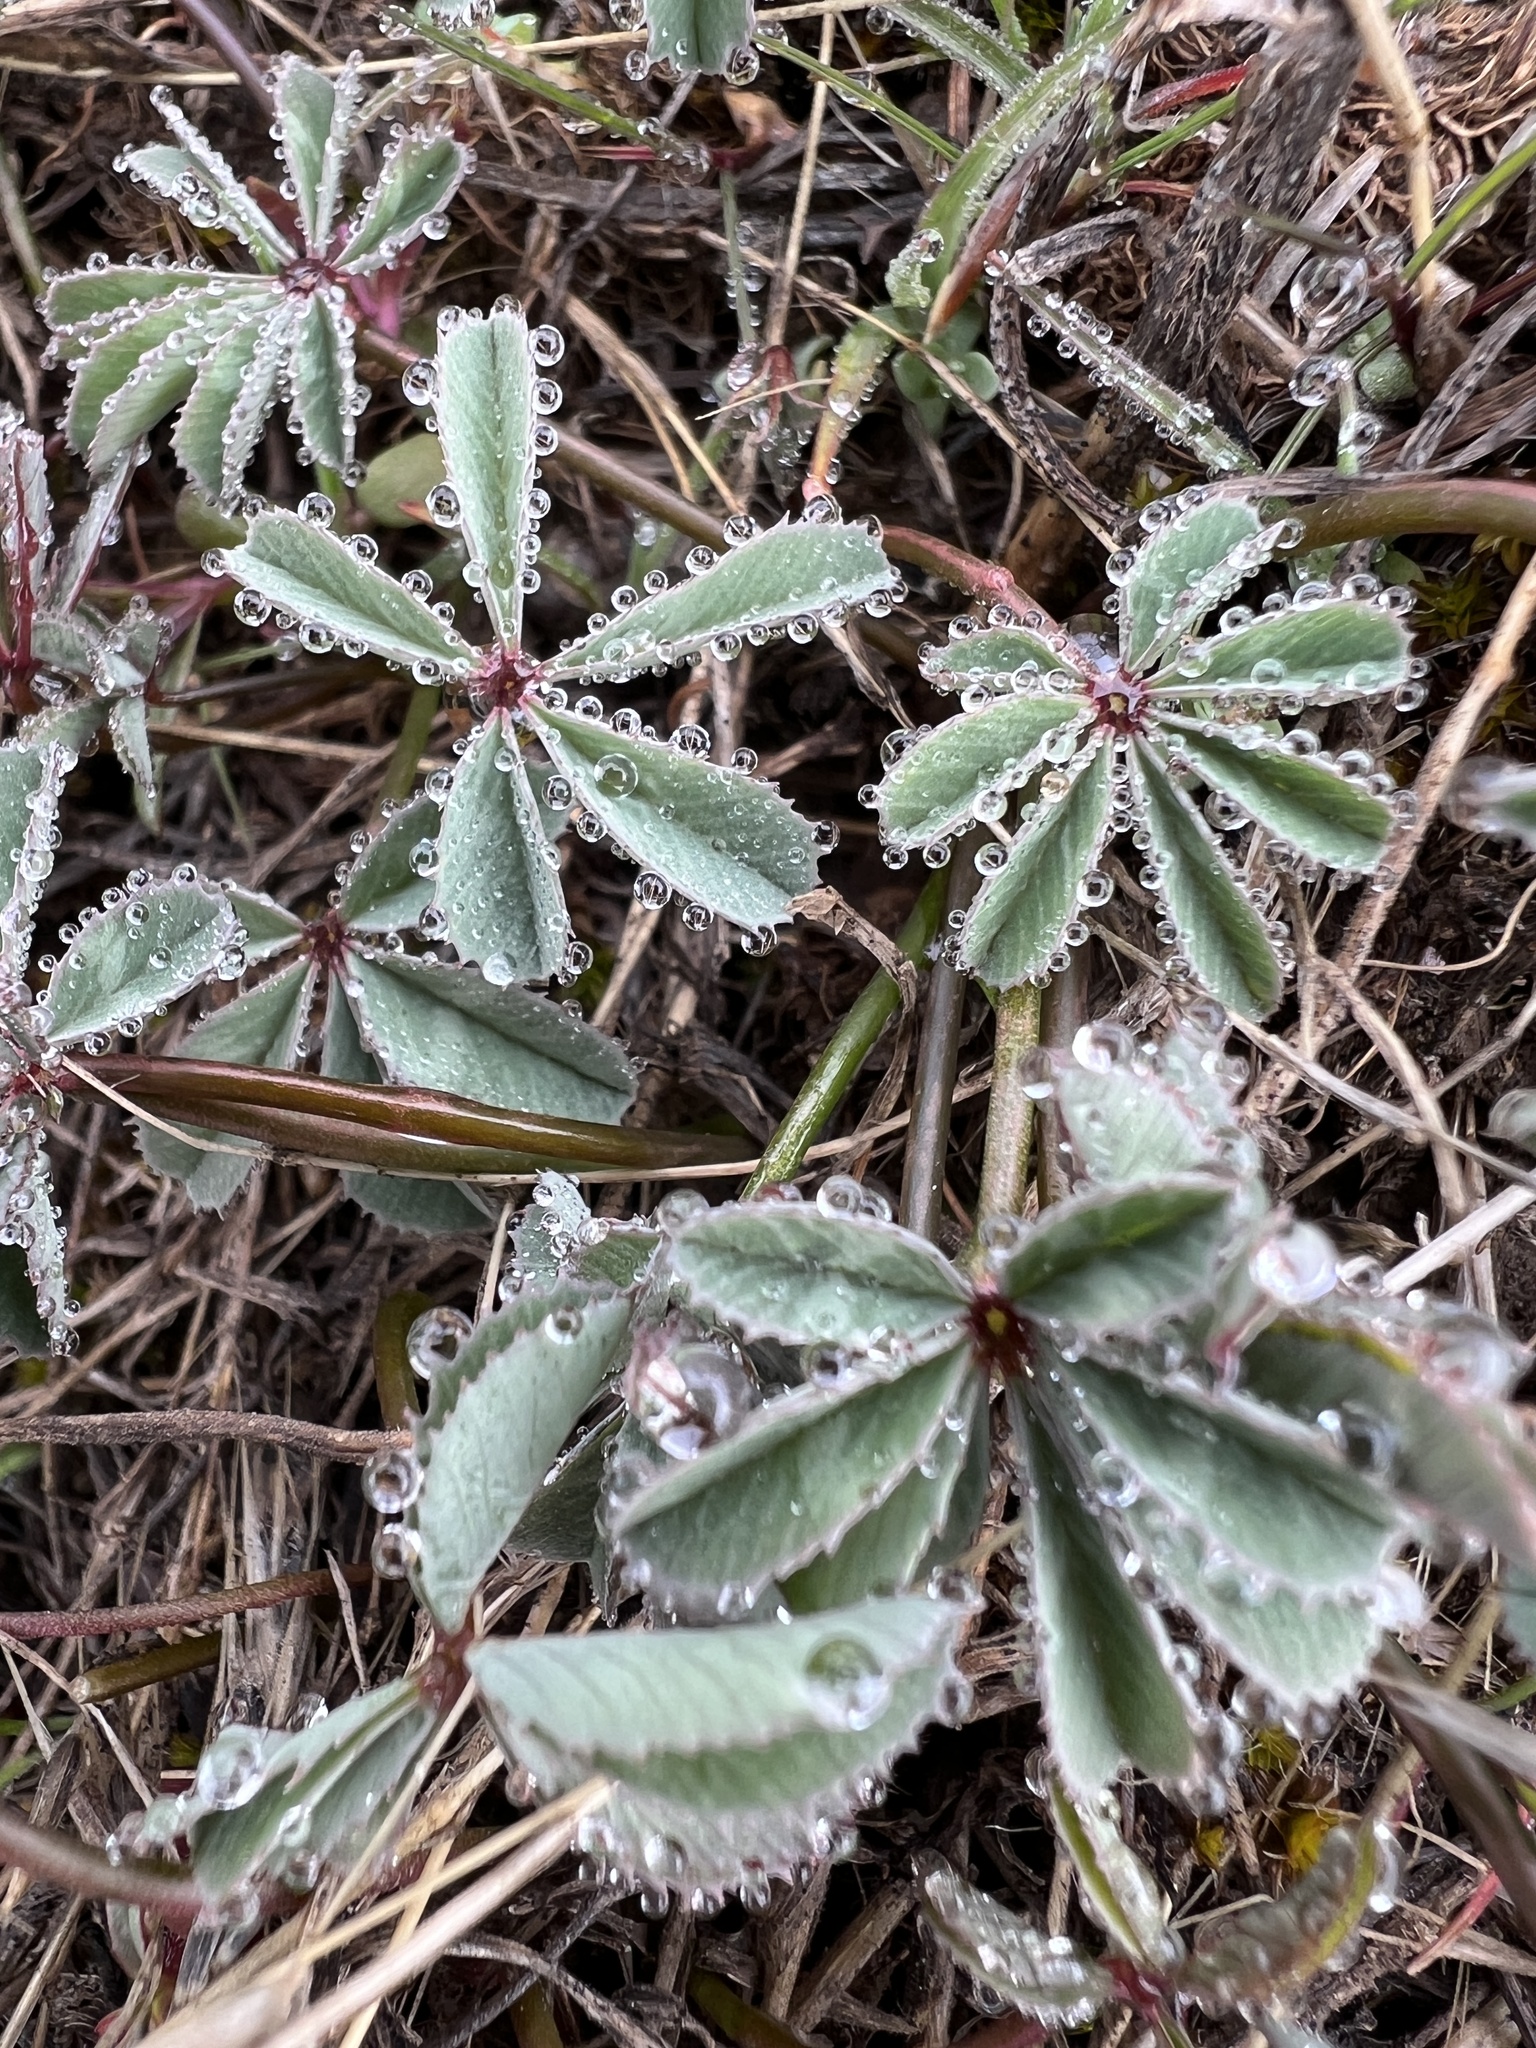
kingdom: Plantae
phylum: Tracheophyta
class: Magnoliopsida
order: Fabales
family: Fabaceae
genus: Trifolium
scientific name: Trifolium macrocephalum
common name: Large-head clover
